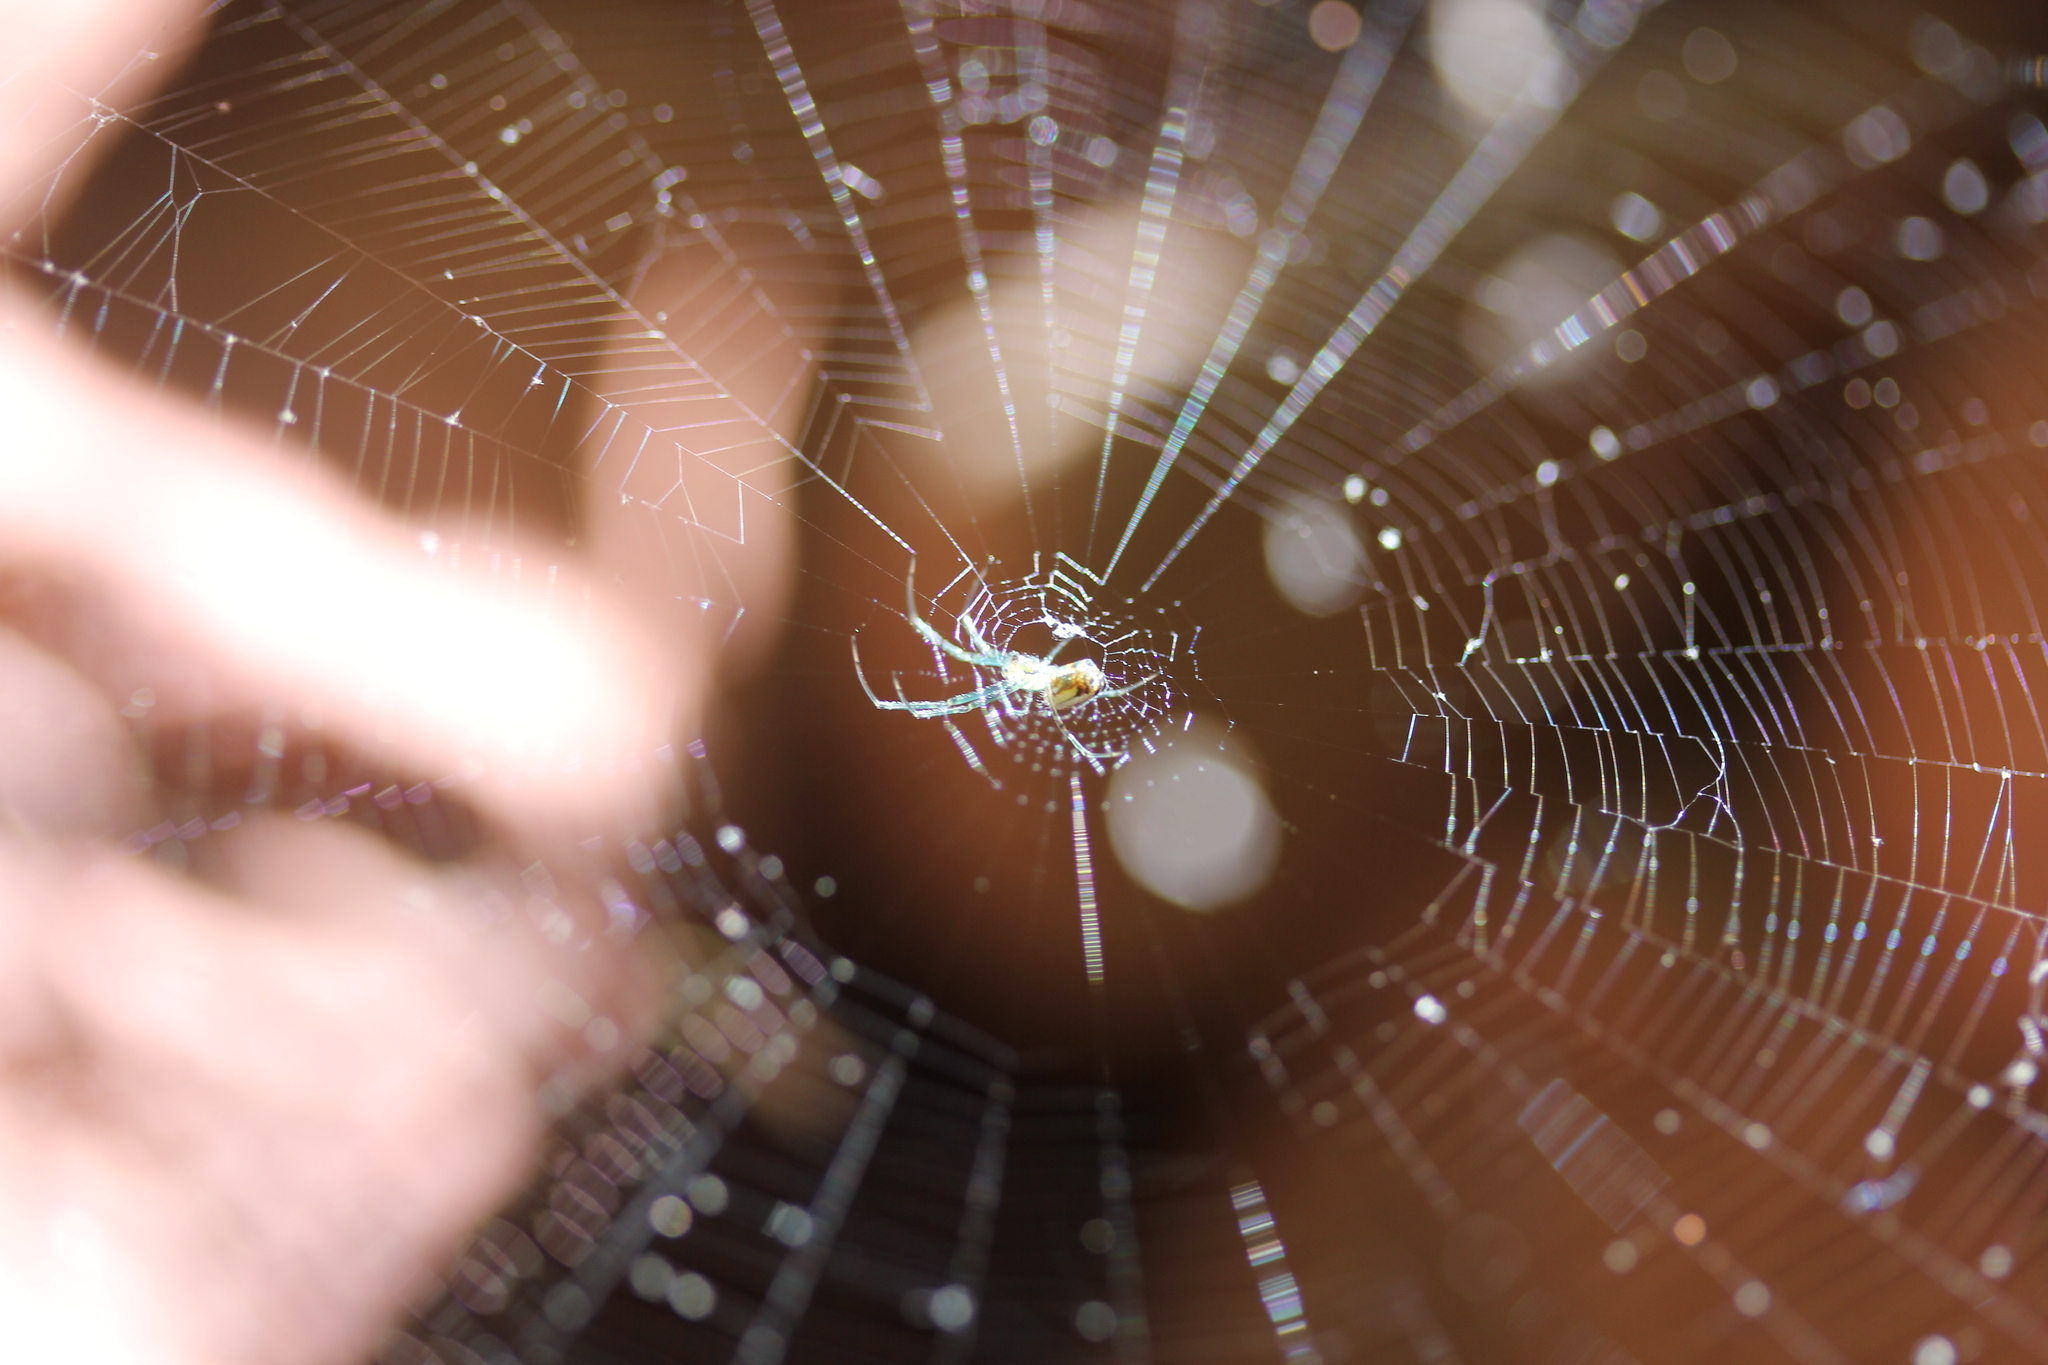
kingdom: Animalia
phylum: Arthropoda
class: Arachnida
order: Araneae
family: Tetragnathidae
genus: Leucauge
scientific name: Leucauge venusta
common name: Longjawed orb weavers
